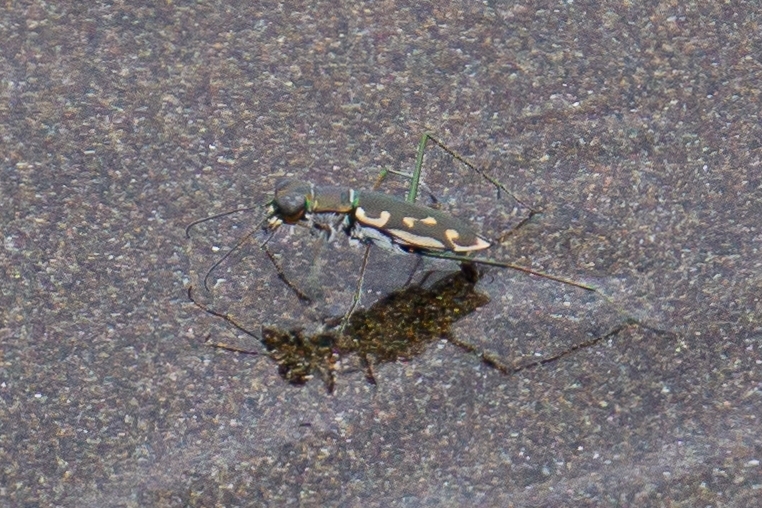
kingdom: Animalia
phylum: Arthropoda
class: Insecta
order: Coleoptera
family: Carabidae
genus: Opilidia
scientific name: Opilidia macrocnema
